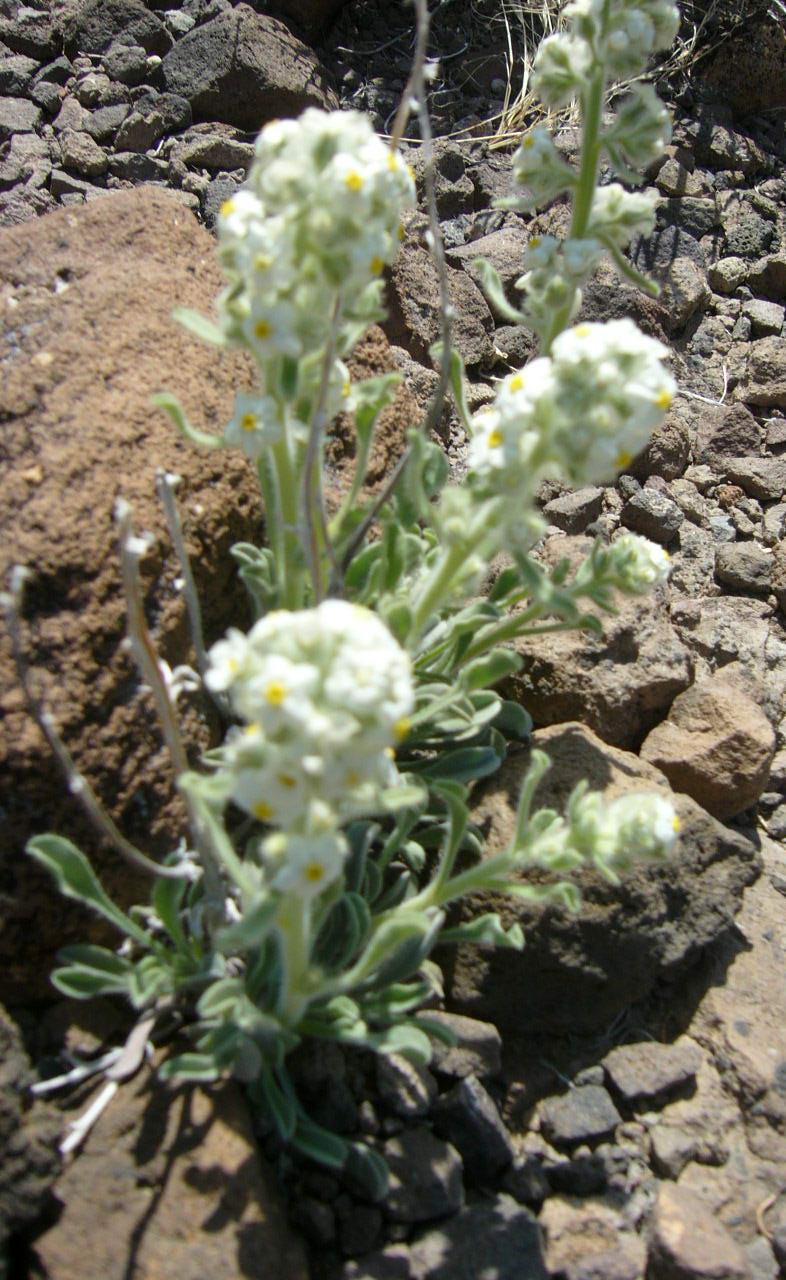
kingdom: Plantae
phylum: Tracheophyta
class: Magnoliopsida
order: Boraginales
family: Boraginaceae
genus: Oreocarya
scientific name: Oreocarya tumulosa
